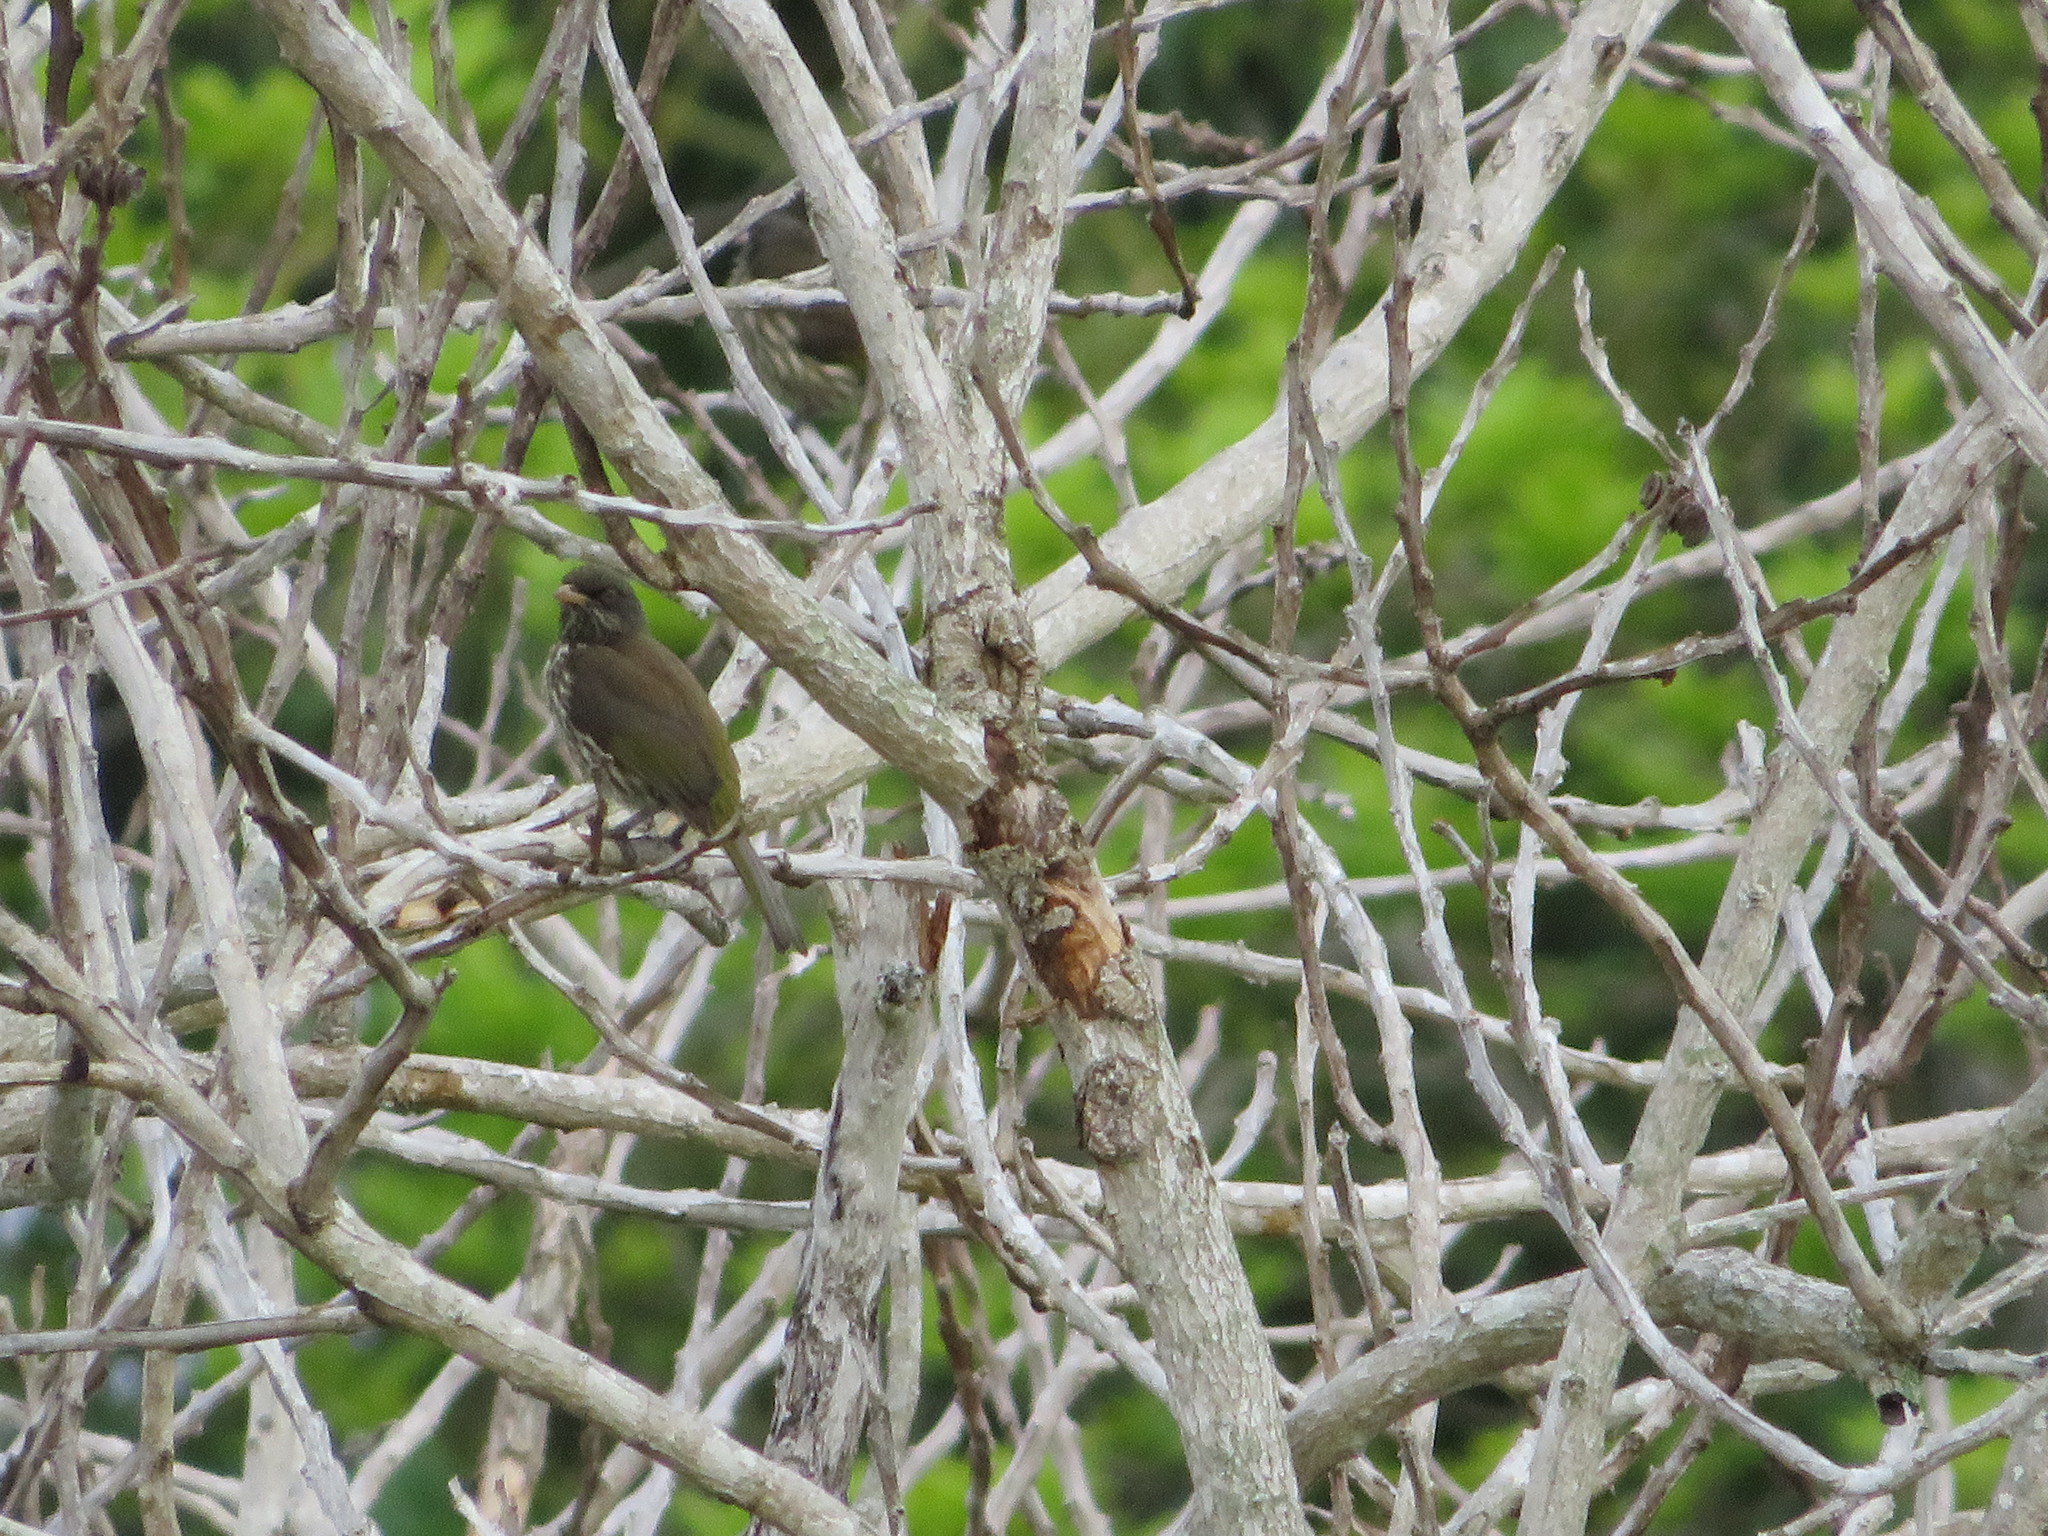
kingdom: Animalia
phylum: Chordata
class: Aves
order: Passeriformes
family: Dulidae
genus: Dulus
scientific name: Dulus dominicus
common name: Palmchat
